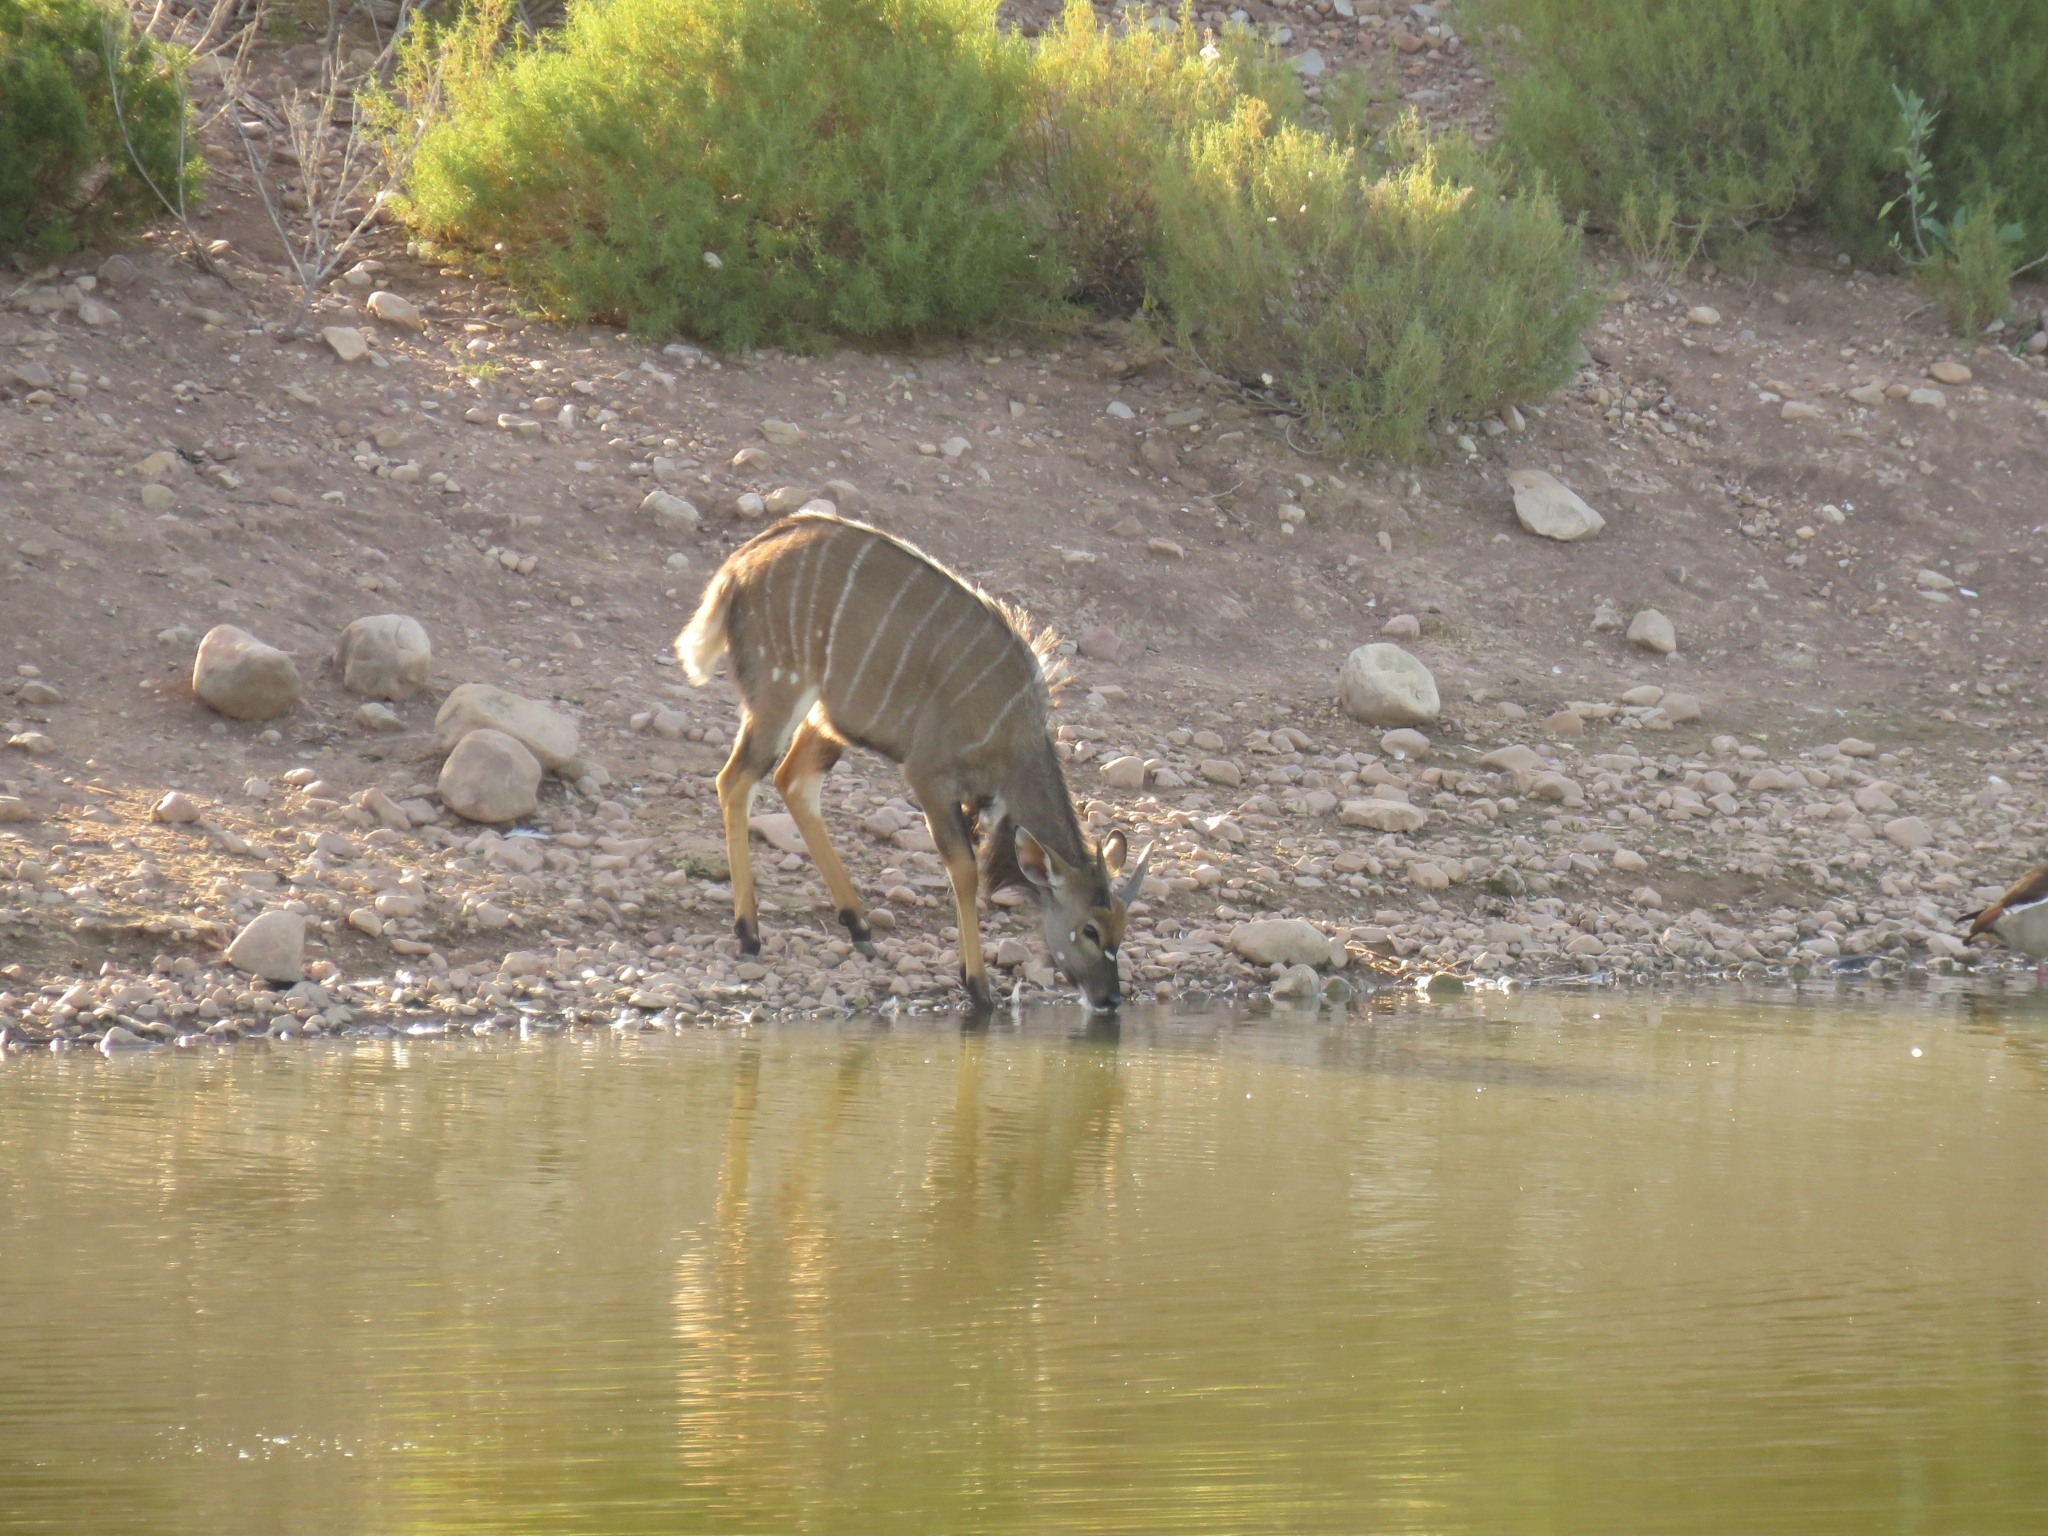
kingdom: Animalia
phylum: Chordata
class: Mammalia
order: Artiodactyla
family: Bovidae
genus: Tragelaphus
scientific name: Tragelaphus angasii
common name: Nyala
